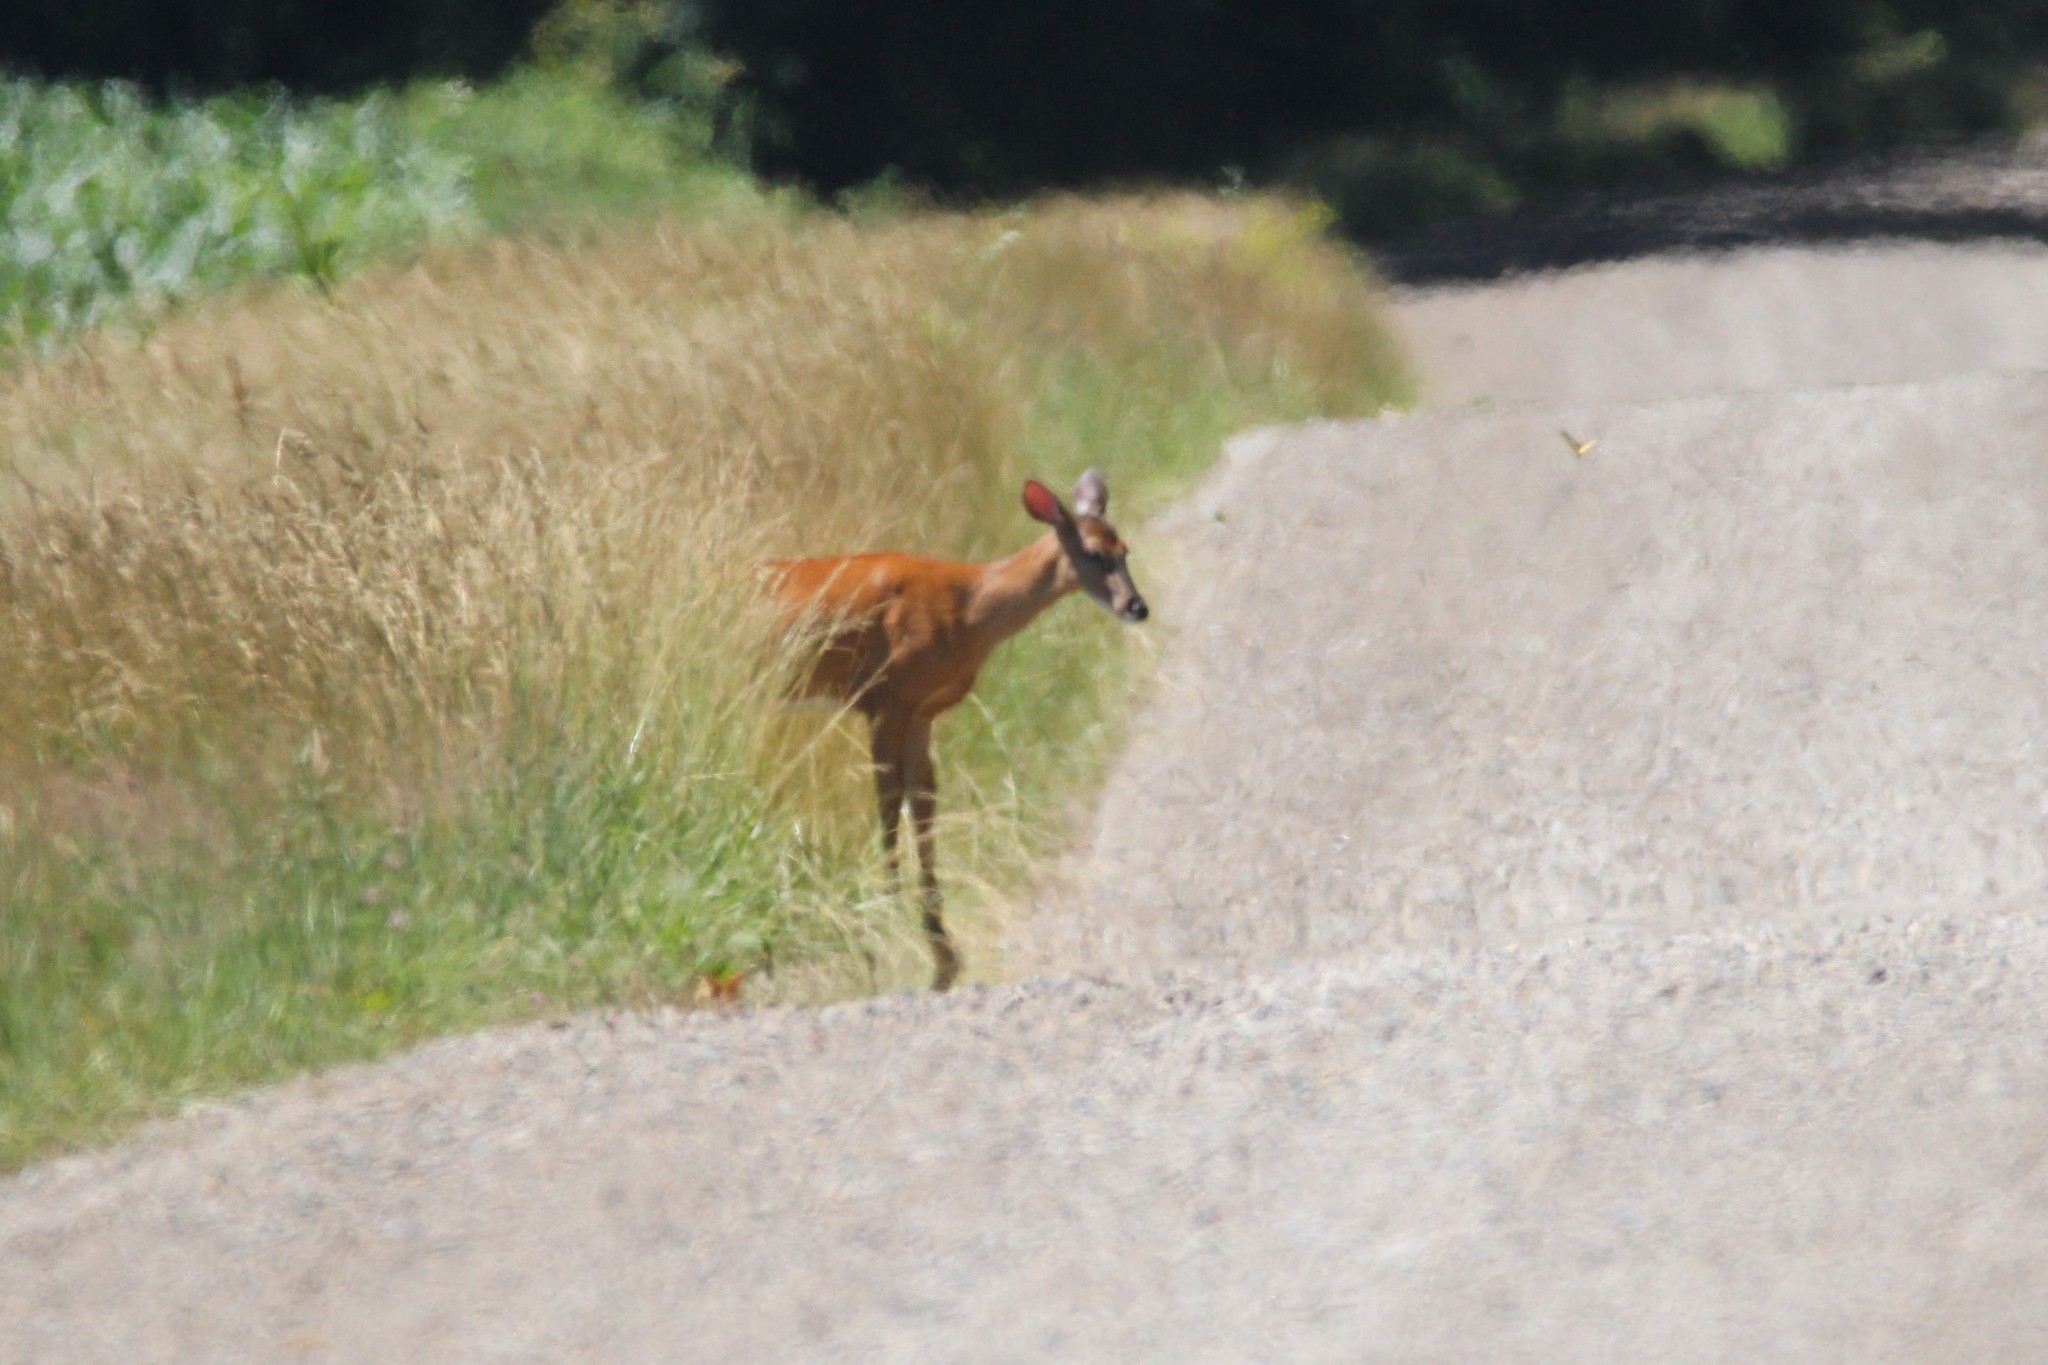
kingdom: Animalia
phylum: Chordata
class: Mammalia
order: Artiodactyla
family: Cervidae
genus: Odocoileus
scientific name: Odocoileus virginianus
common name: White-tailed deer
